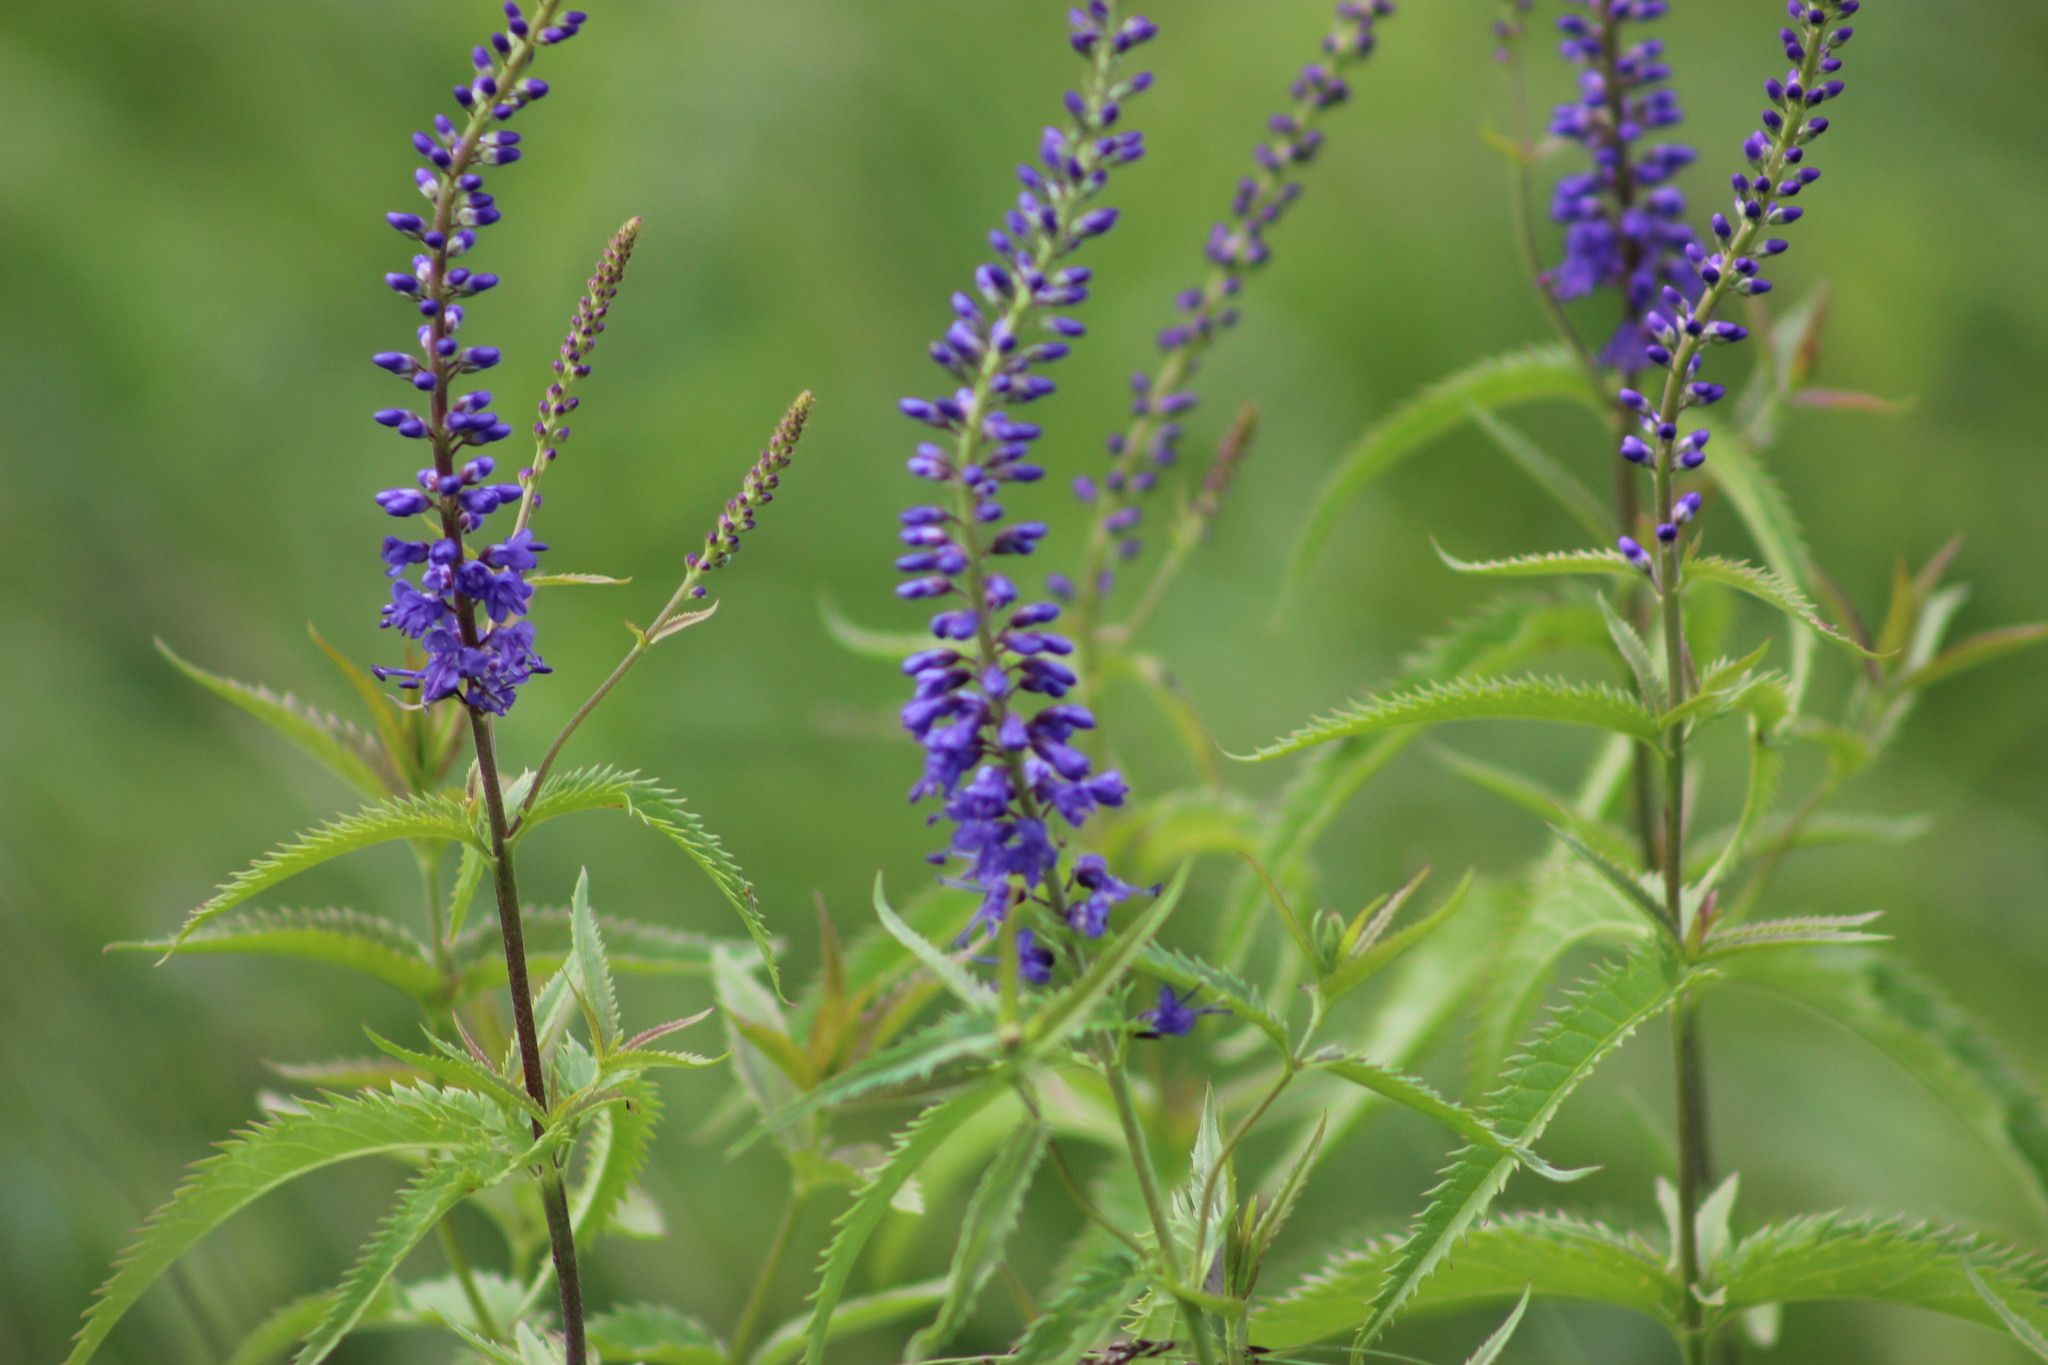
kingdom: Plantae
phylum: Tracheophyta
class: Magnoliopsida
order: Lamiales
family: Plantaginaceae
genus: Veronica
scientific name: Veronica longifolia
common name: Garden speedwell
